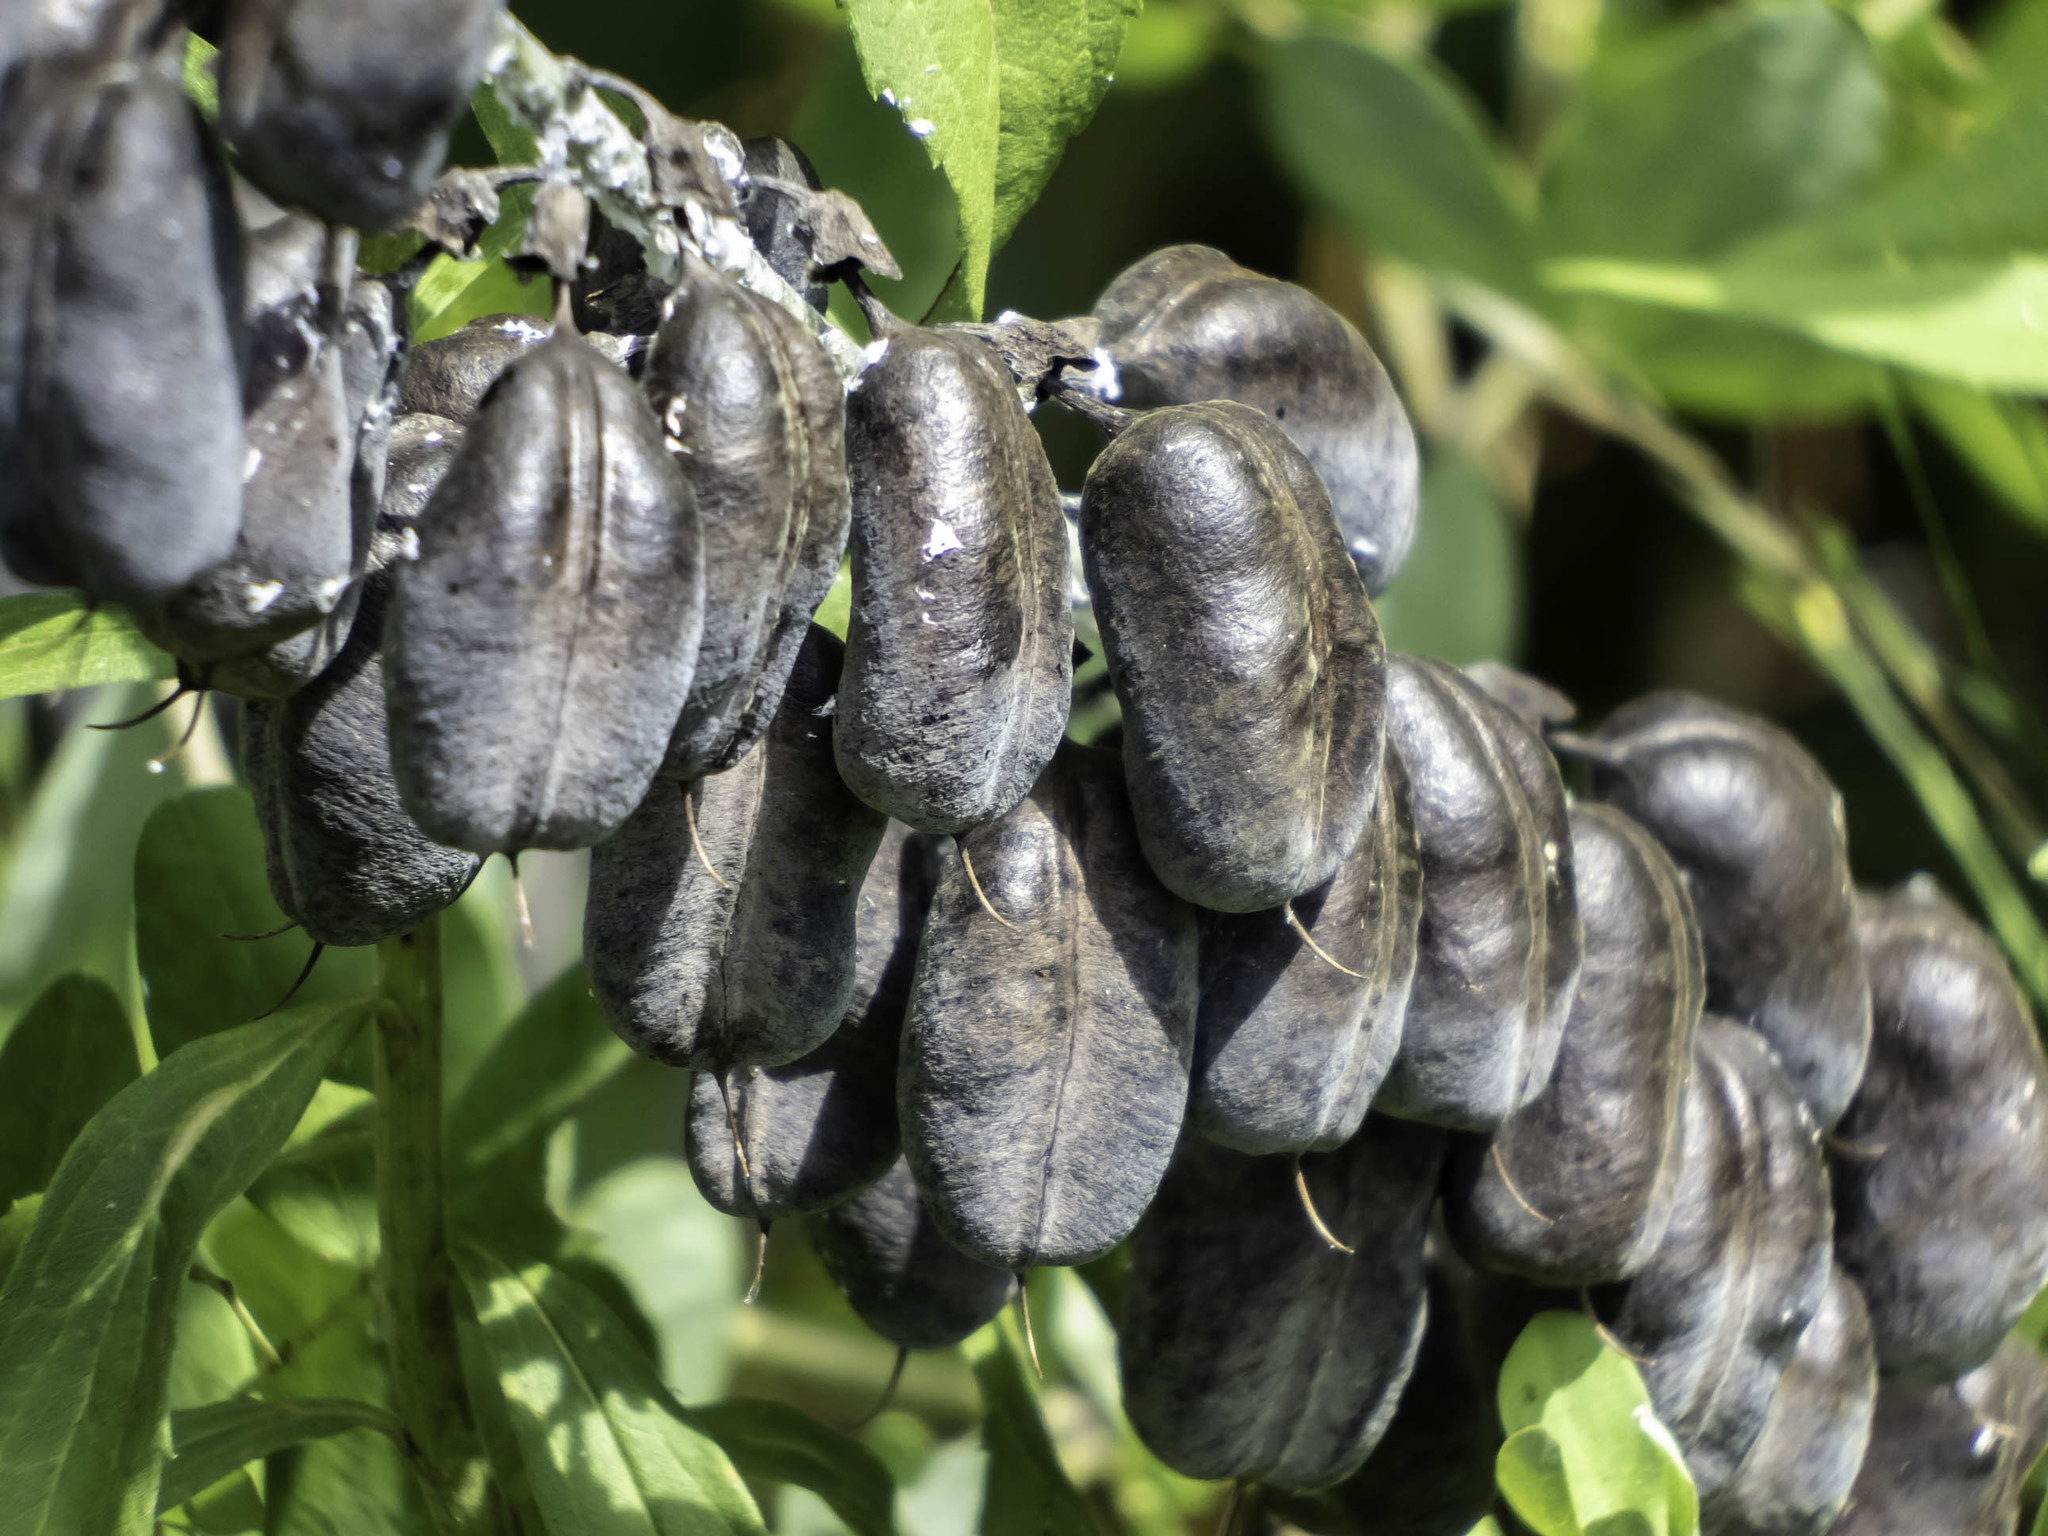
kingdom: Plantae
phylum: Tracheophyta
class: Magnoliopsida
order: Fabales
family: Fabaceae
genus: Baptisia
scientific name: Baptisia alba
